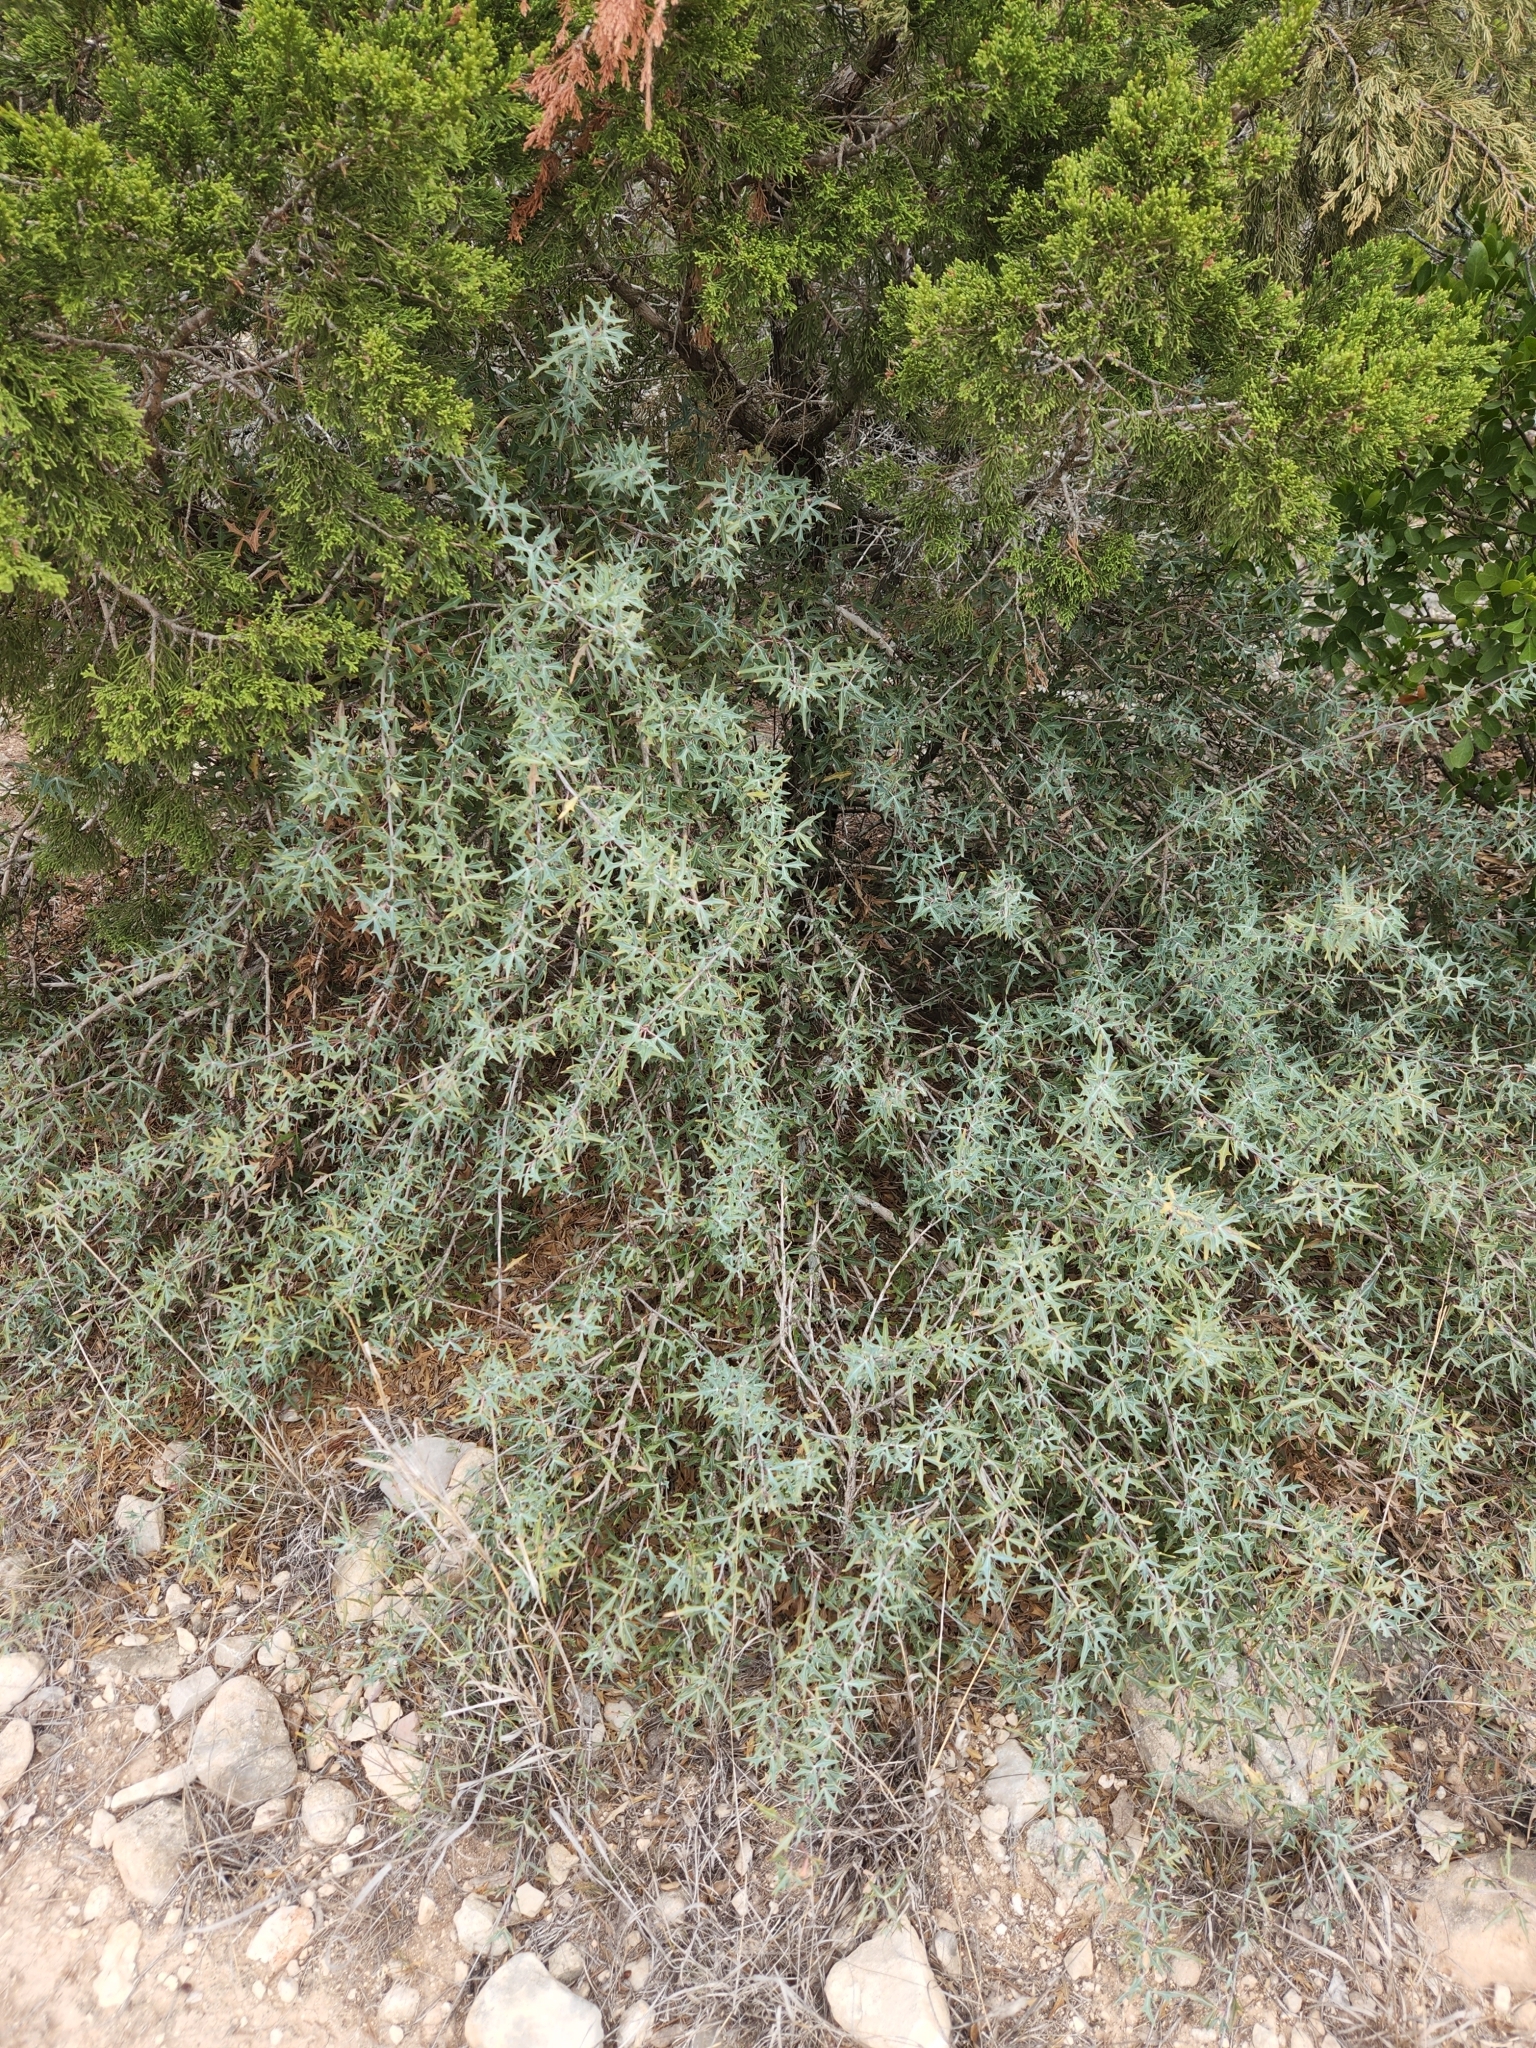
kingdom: Plantae
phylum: Tracheophyta
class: Magnoliopsida
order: Ranunculales
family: Berberidaceae
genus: Alloberberis
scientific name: Alloberberis trifoliolata
